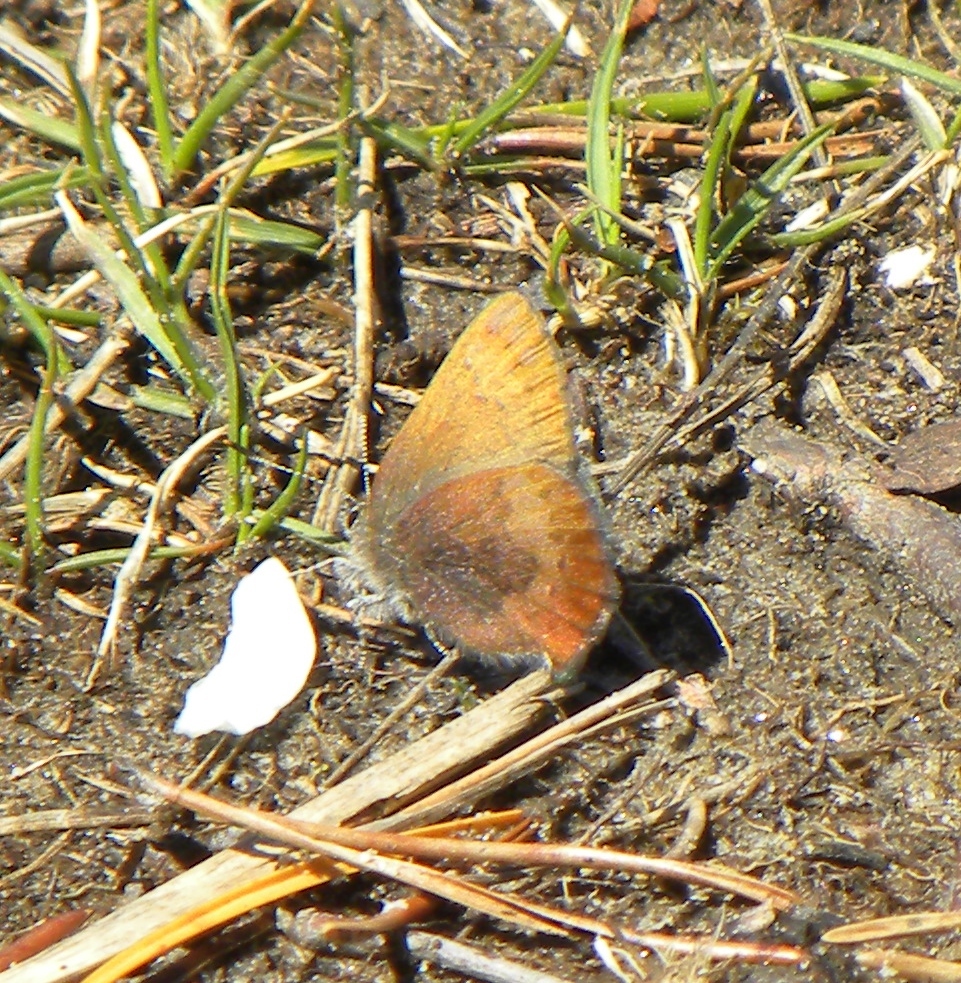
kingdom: Animalia
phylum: Arthropoda
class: Insecta
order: Lepidoptera
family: Lycaenidae
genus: Incisalia
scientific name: Incisalia irioides
